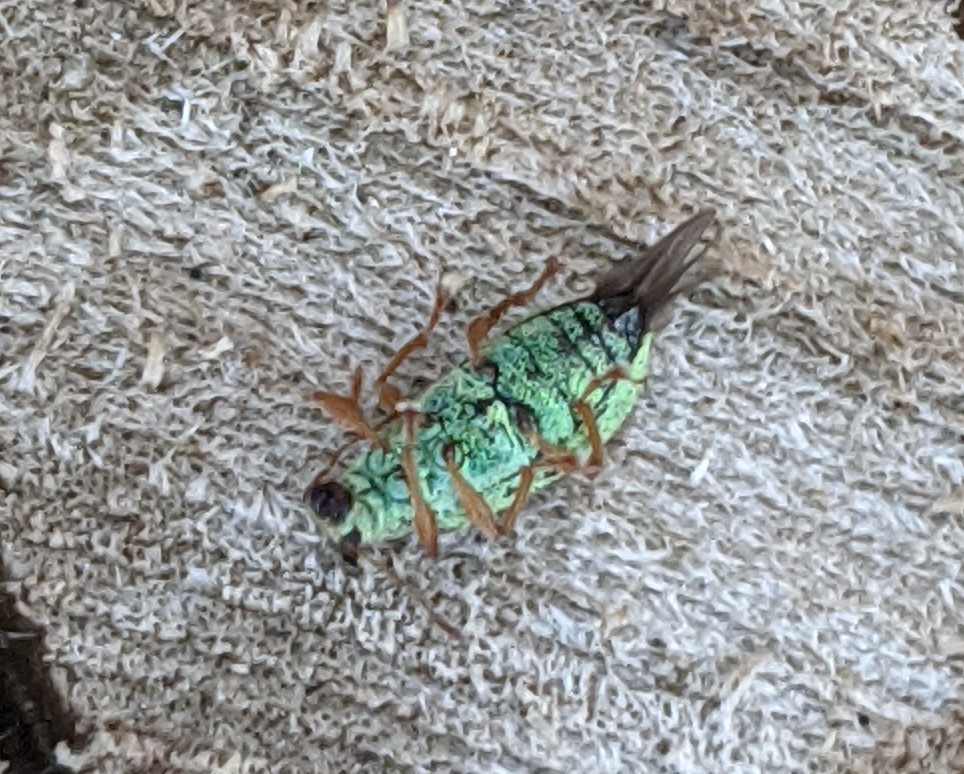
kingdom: Animalia
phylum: Arthropoda
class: Insecta
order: Coleoptera
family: Curculionidae
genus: Polydrusus
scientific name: Polydrusus
